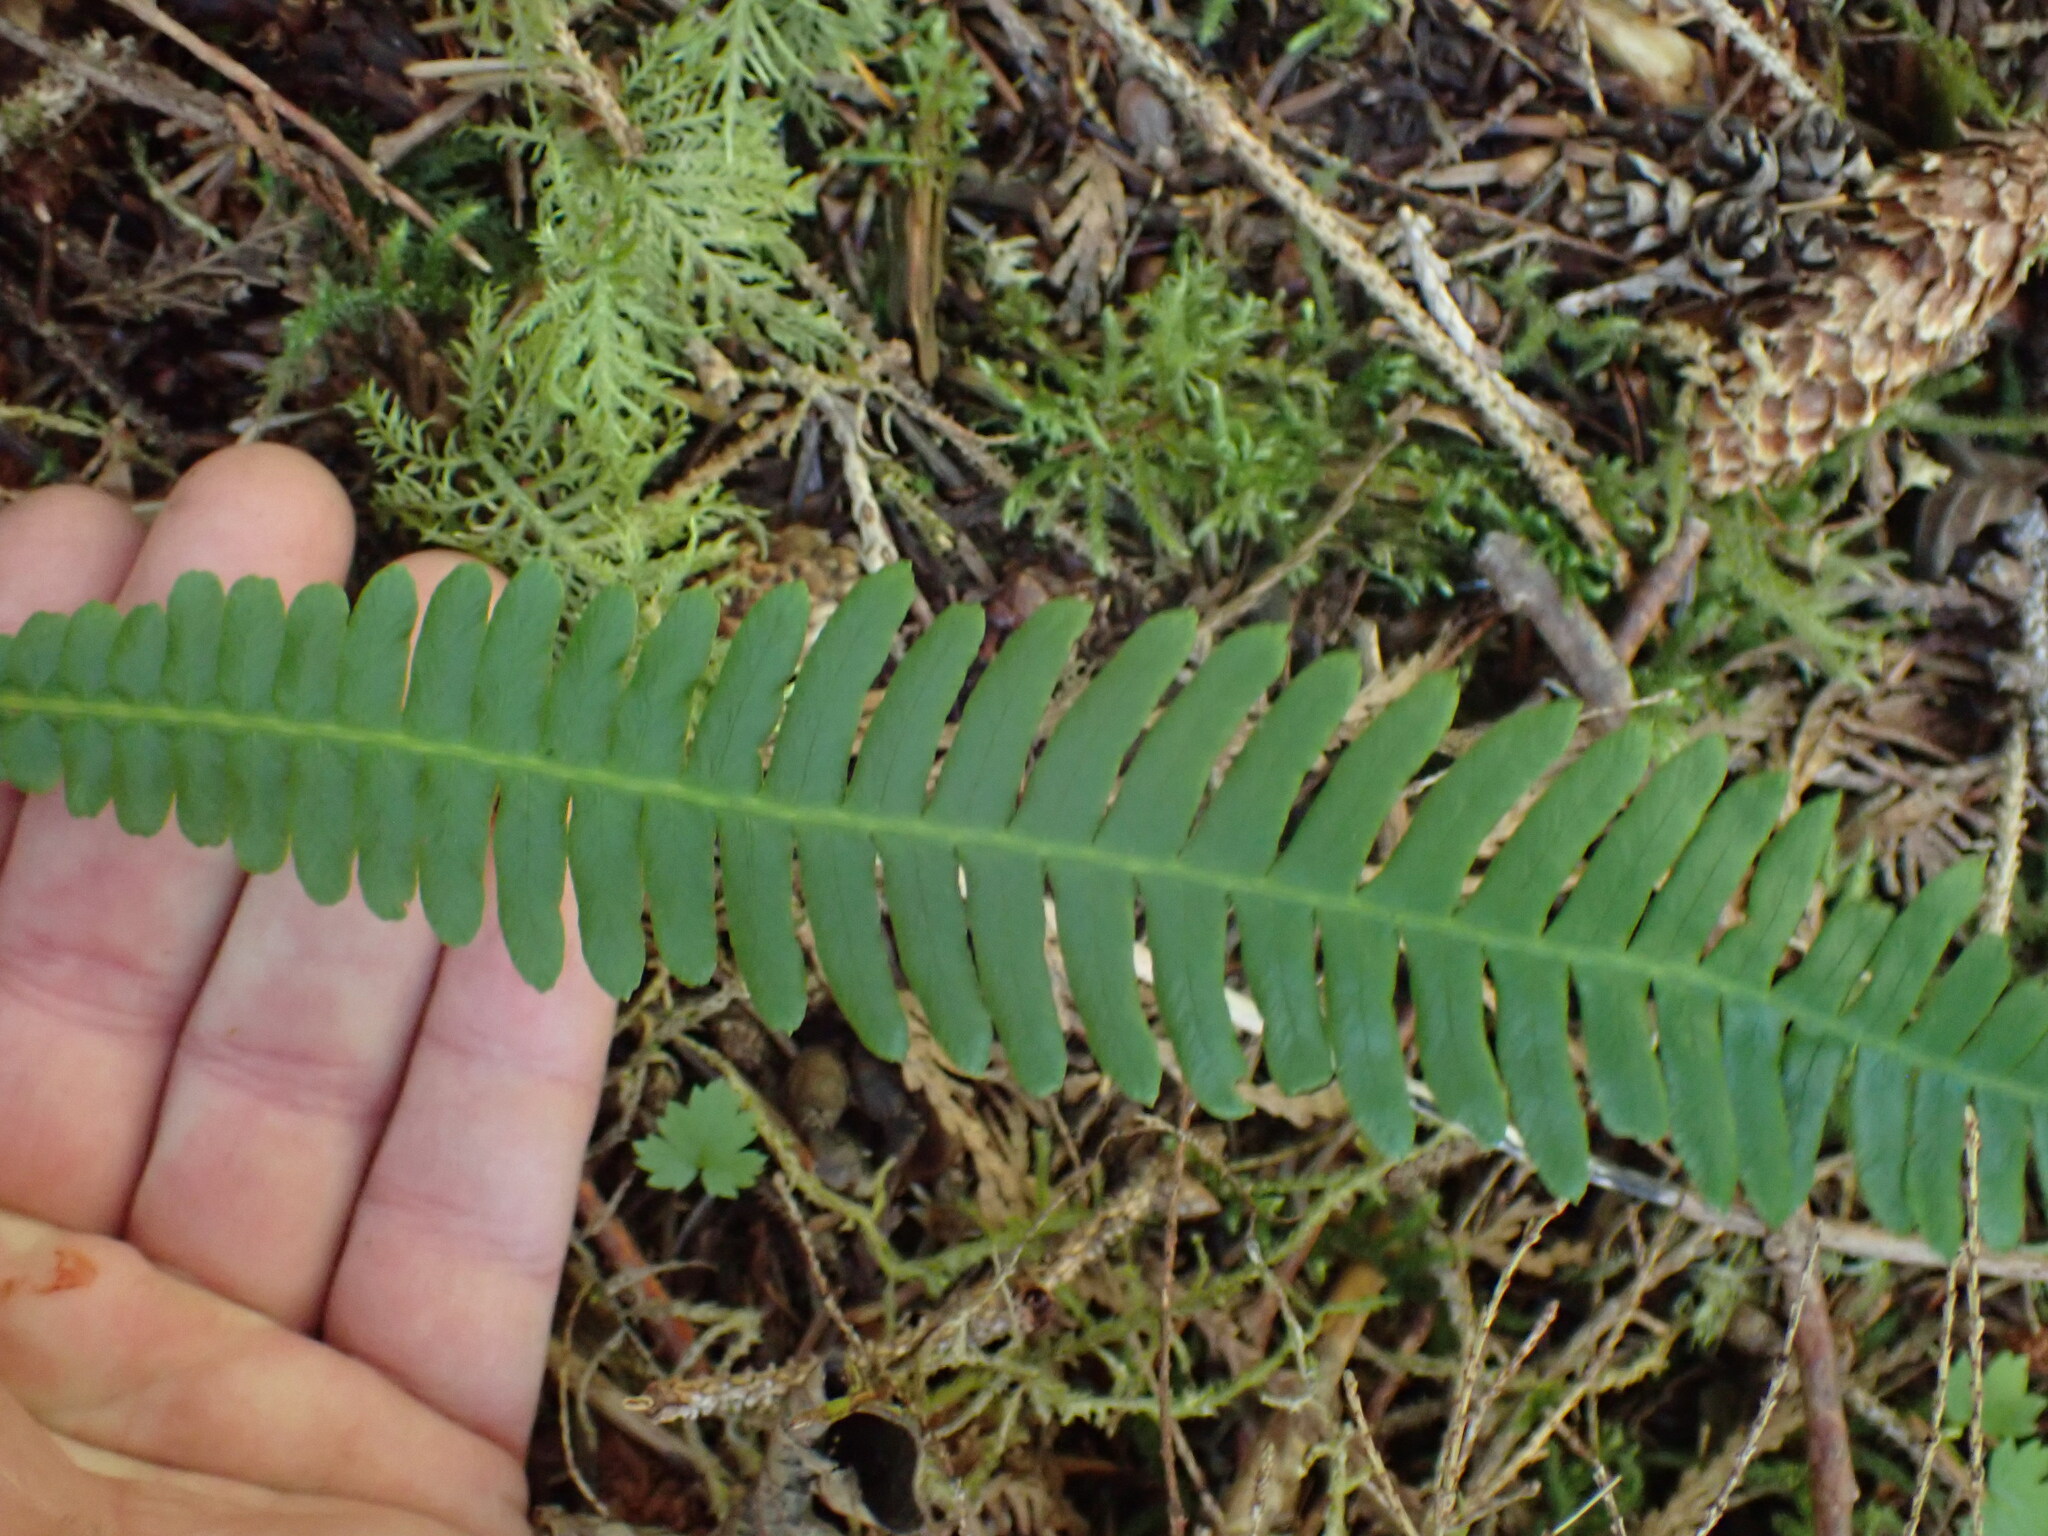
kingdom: Plantae
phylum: Tracheophyta
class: Polypodiopsida
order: Polypodiales
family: Blechnaceae
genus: Struthiopteris
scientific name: Struthiopteris spicant
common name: Deer fern
